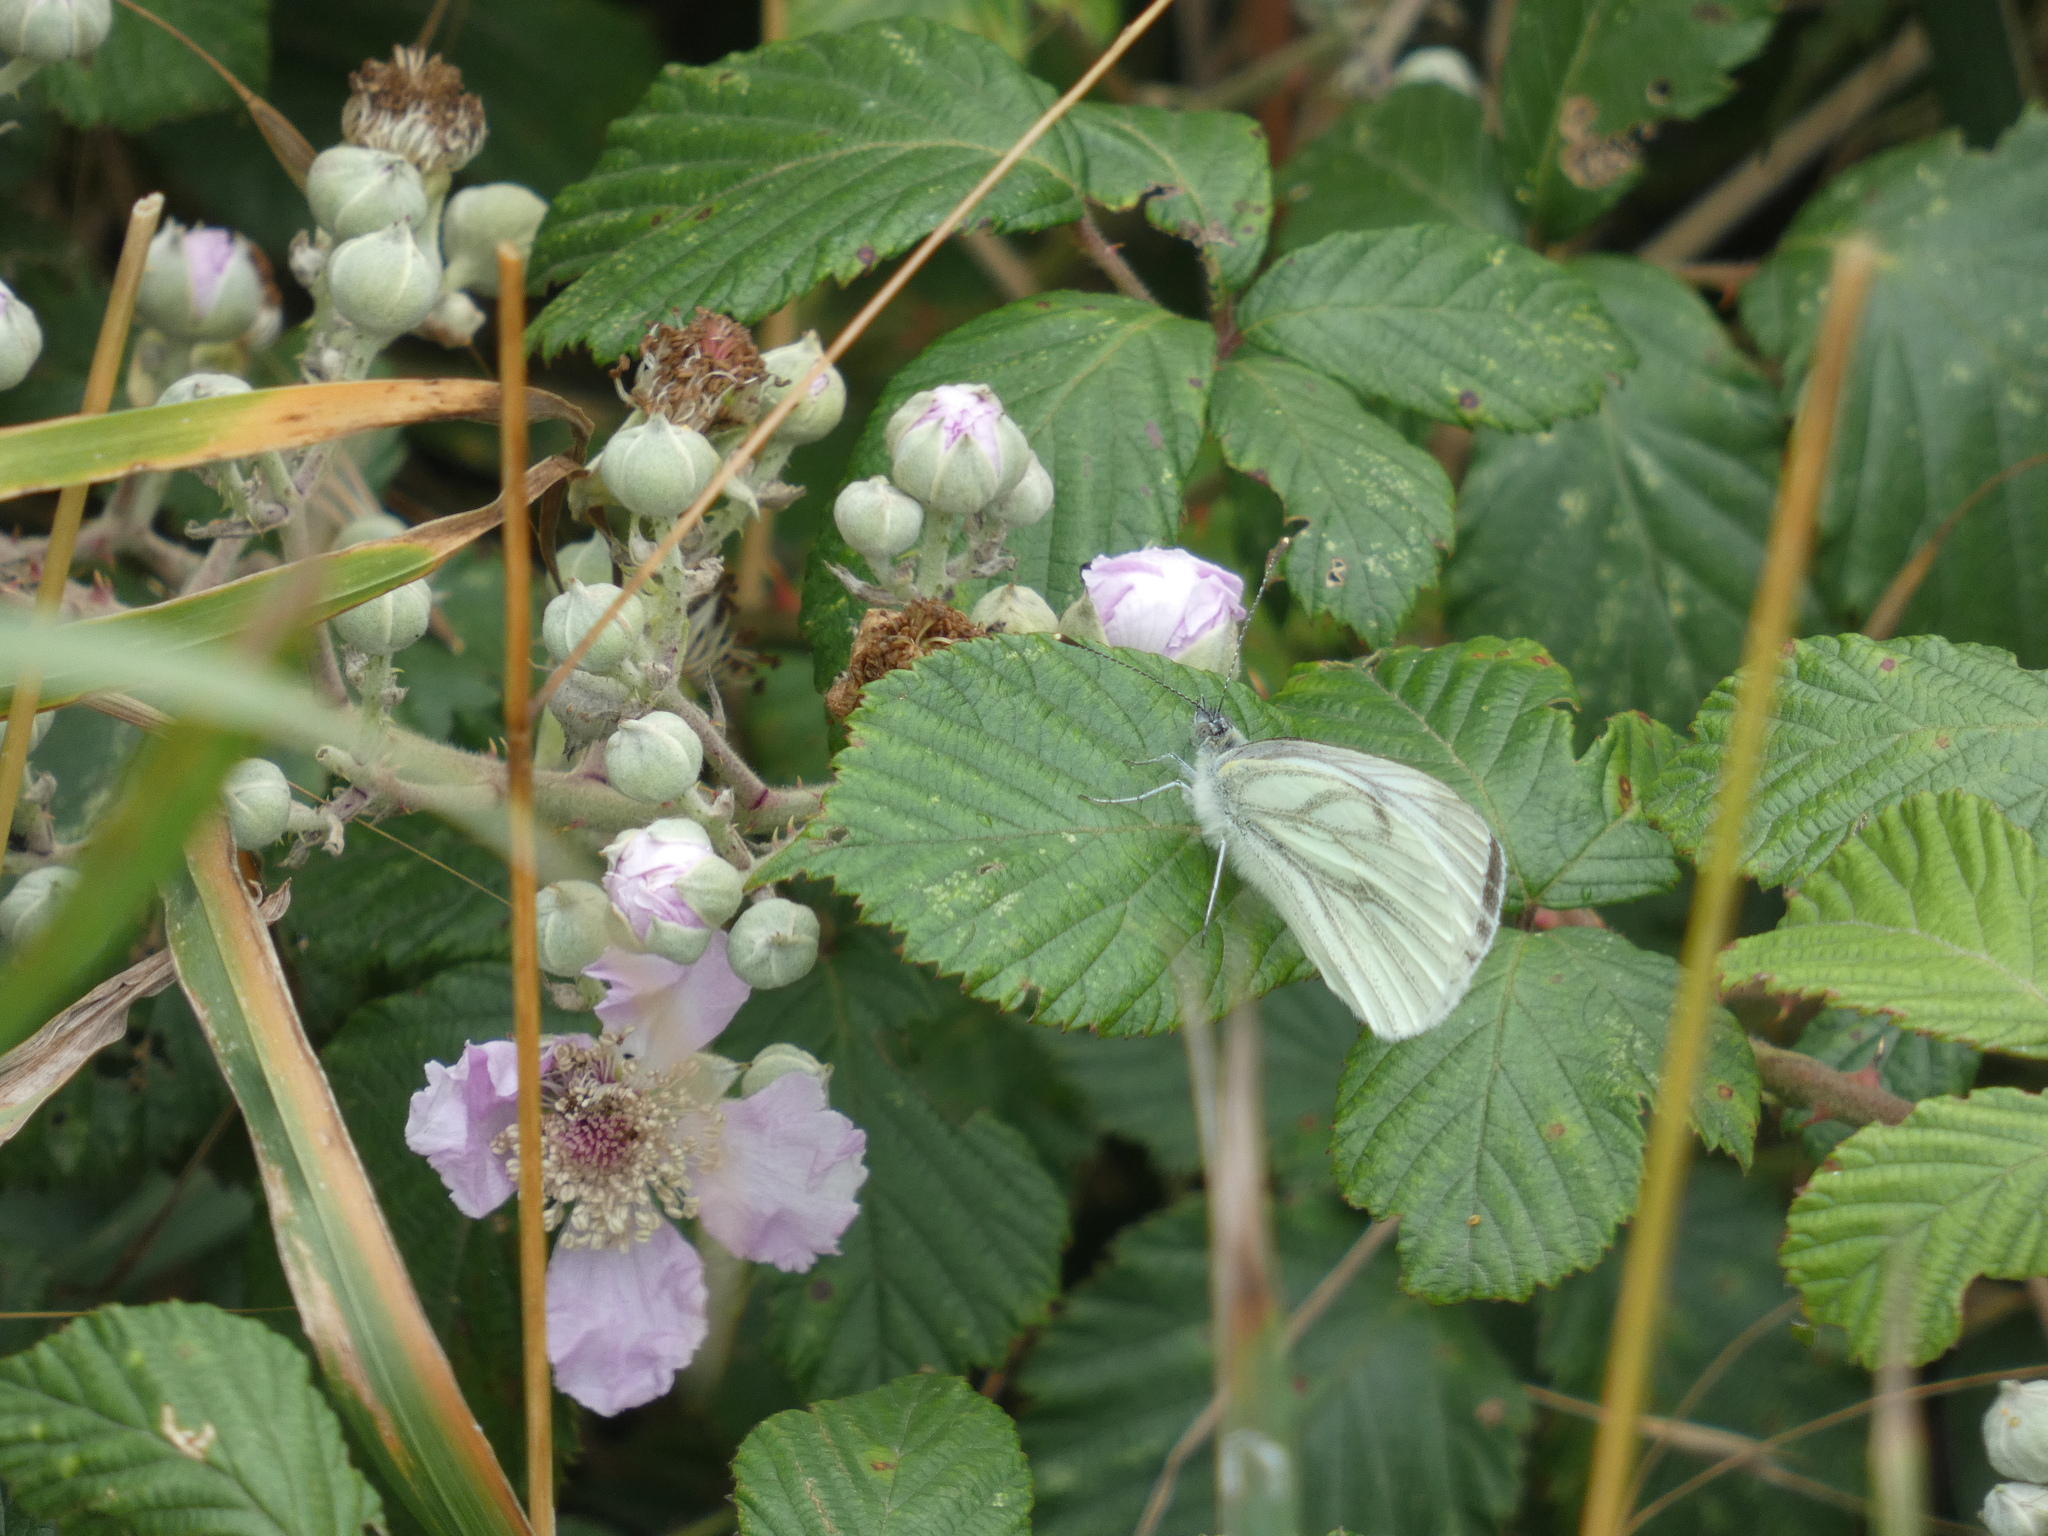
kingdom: Animalia
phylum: Arthropoda
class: Insecta
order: Lepidoptera
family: Pieridae
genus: Pieris
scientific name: Pieris napi
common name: Green-veined white
